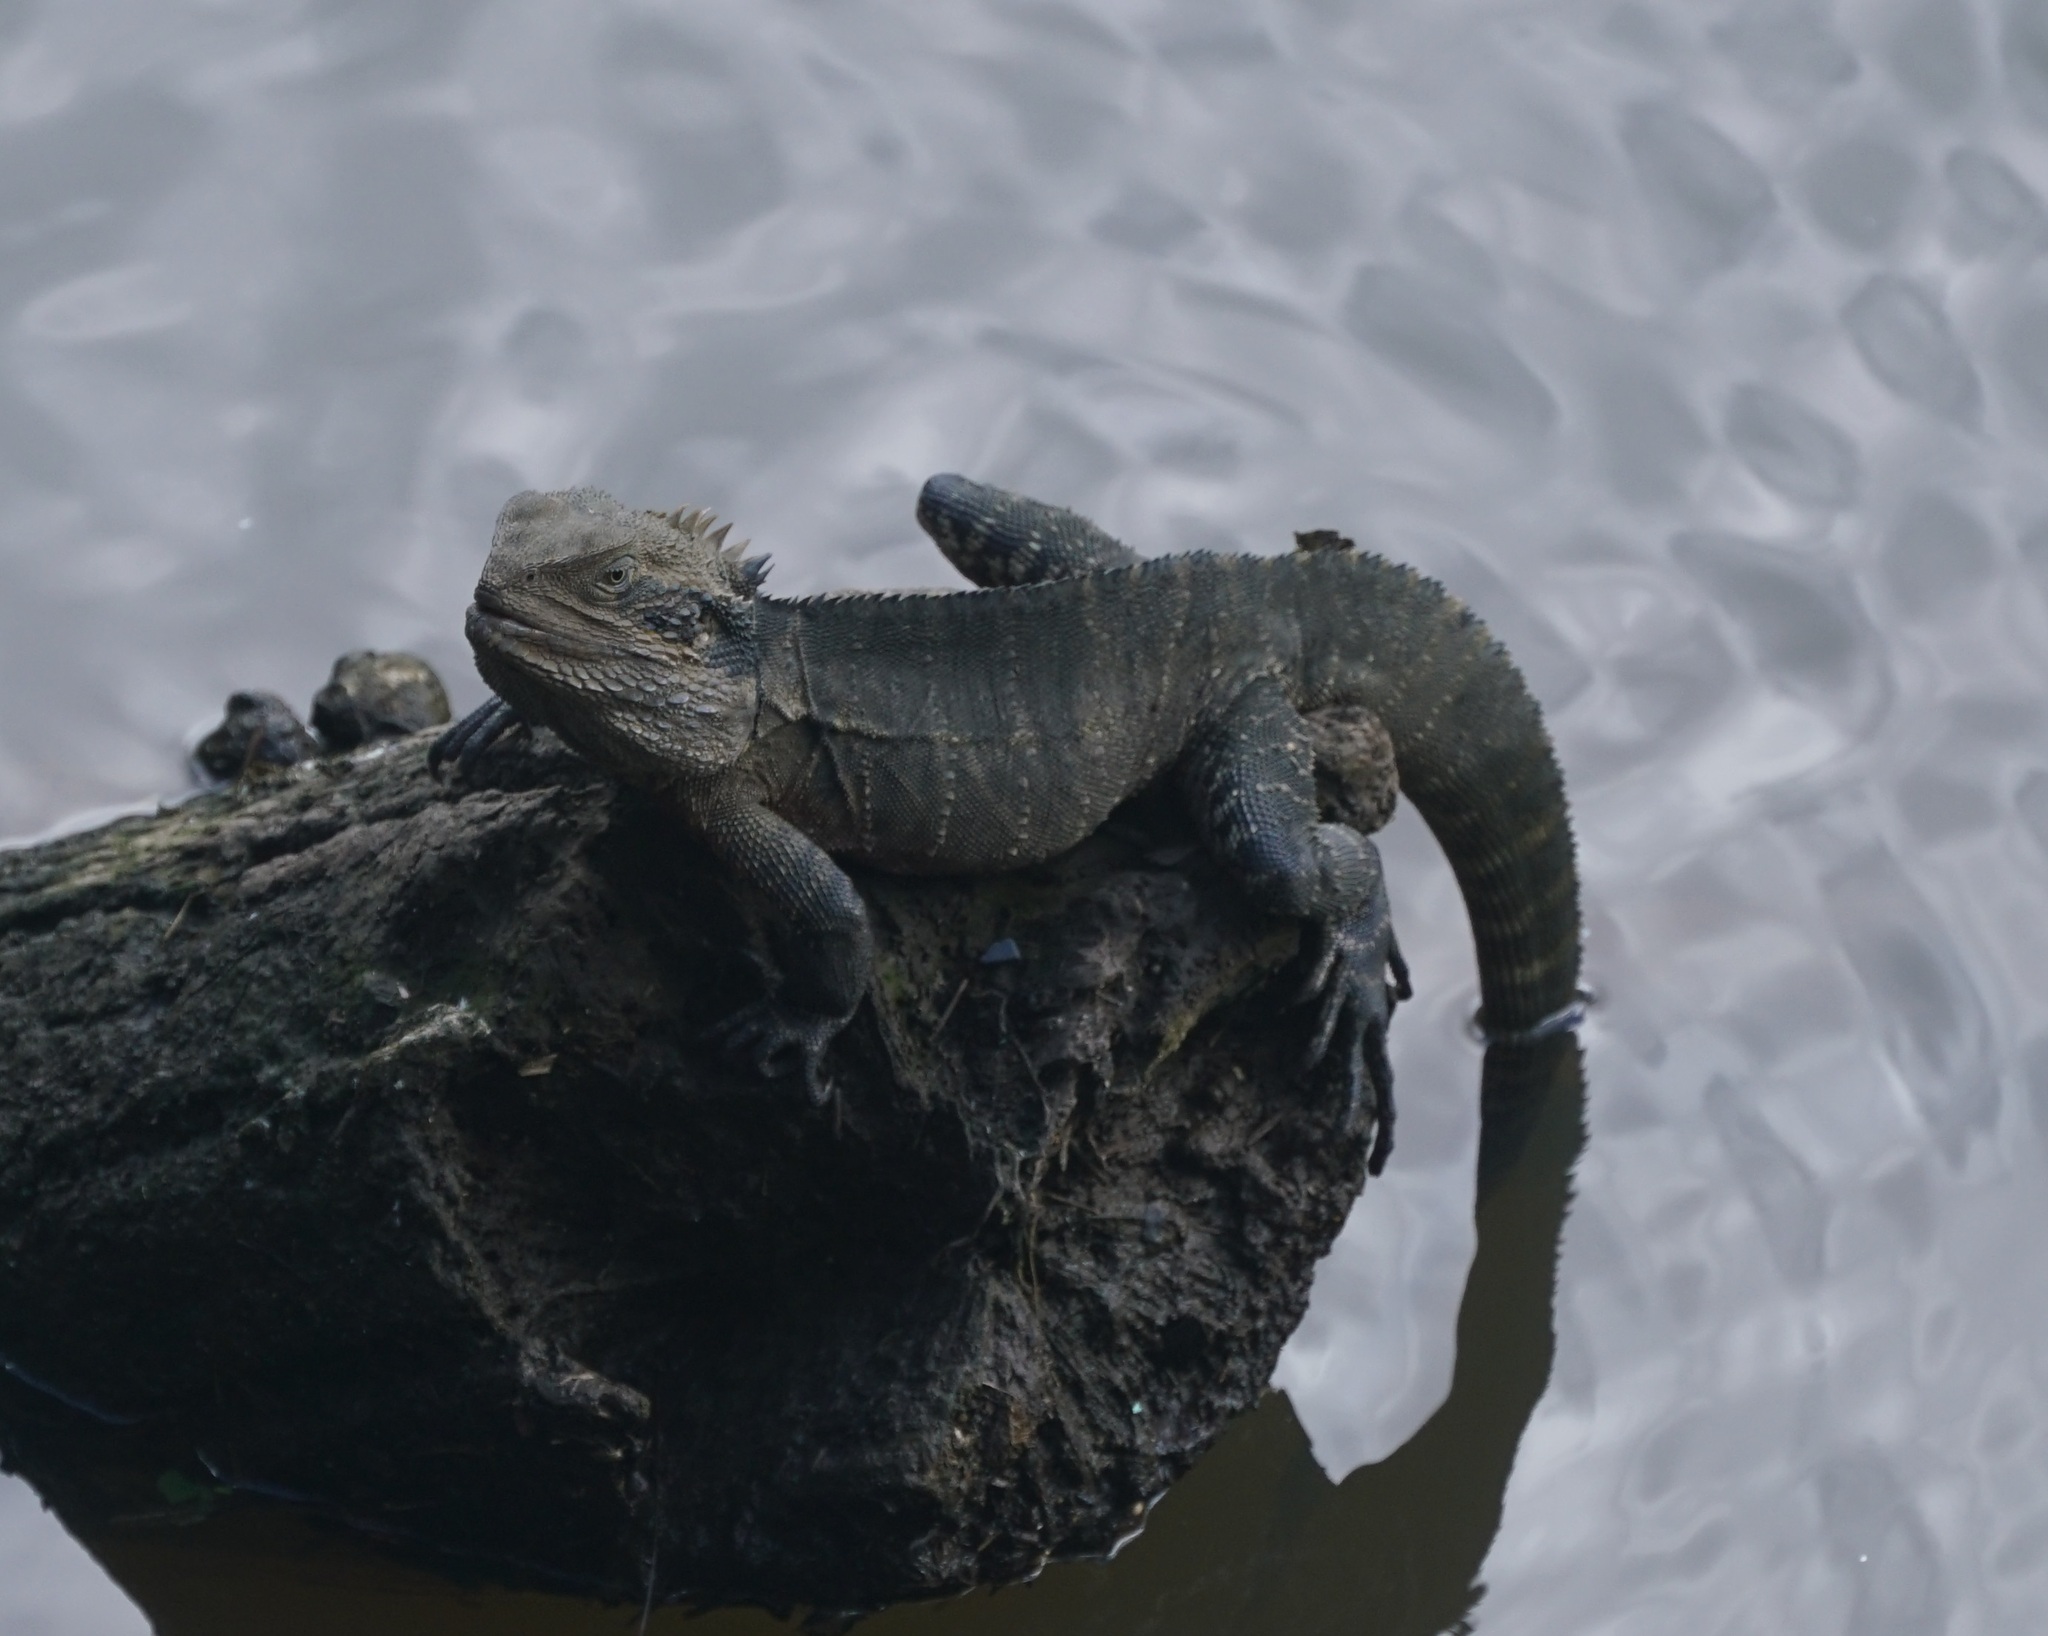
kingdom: Animalia
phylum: Chordata
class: Squamata
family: Agamidae
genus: Intellagama
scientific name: Intellagama lesueurii
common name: Eastern water dragon
